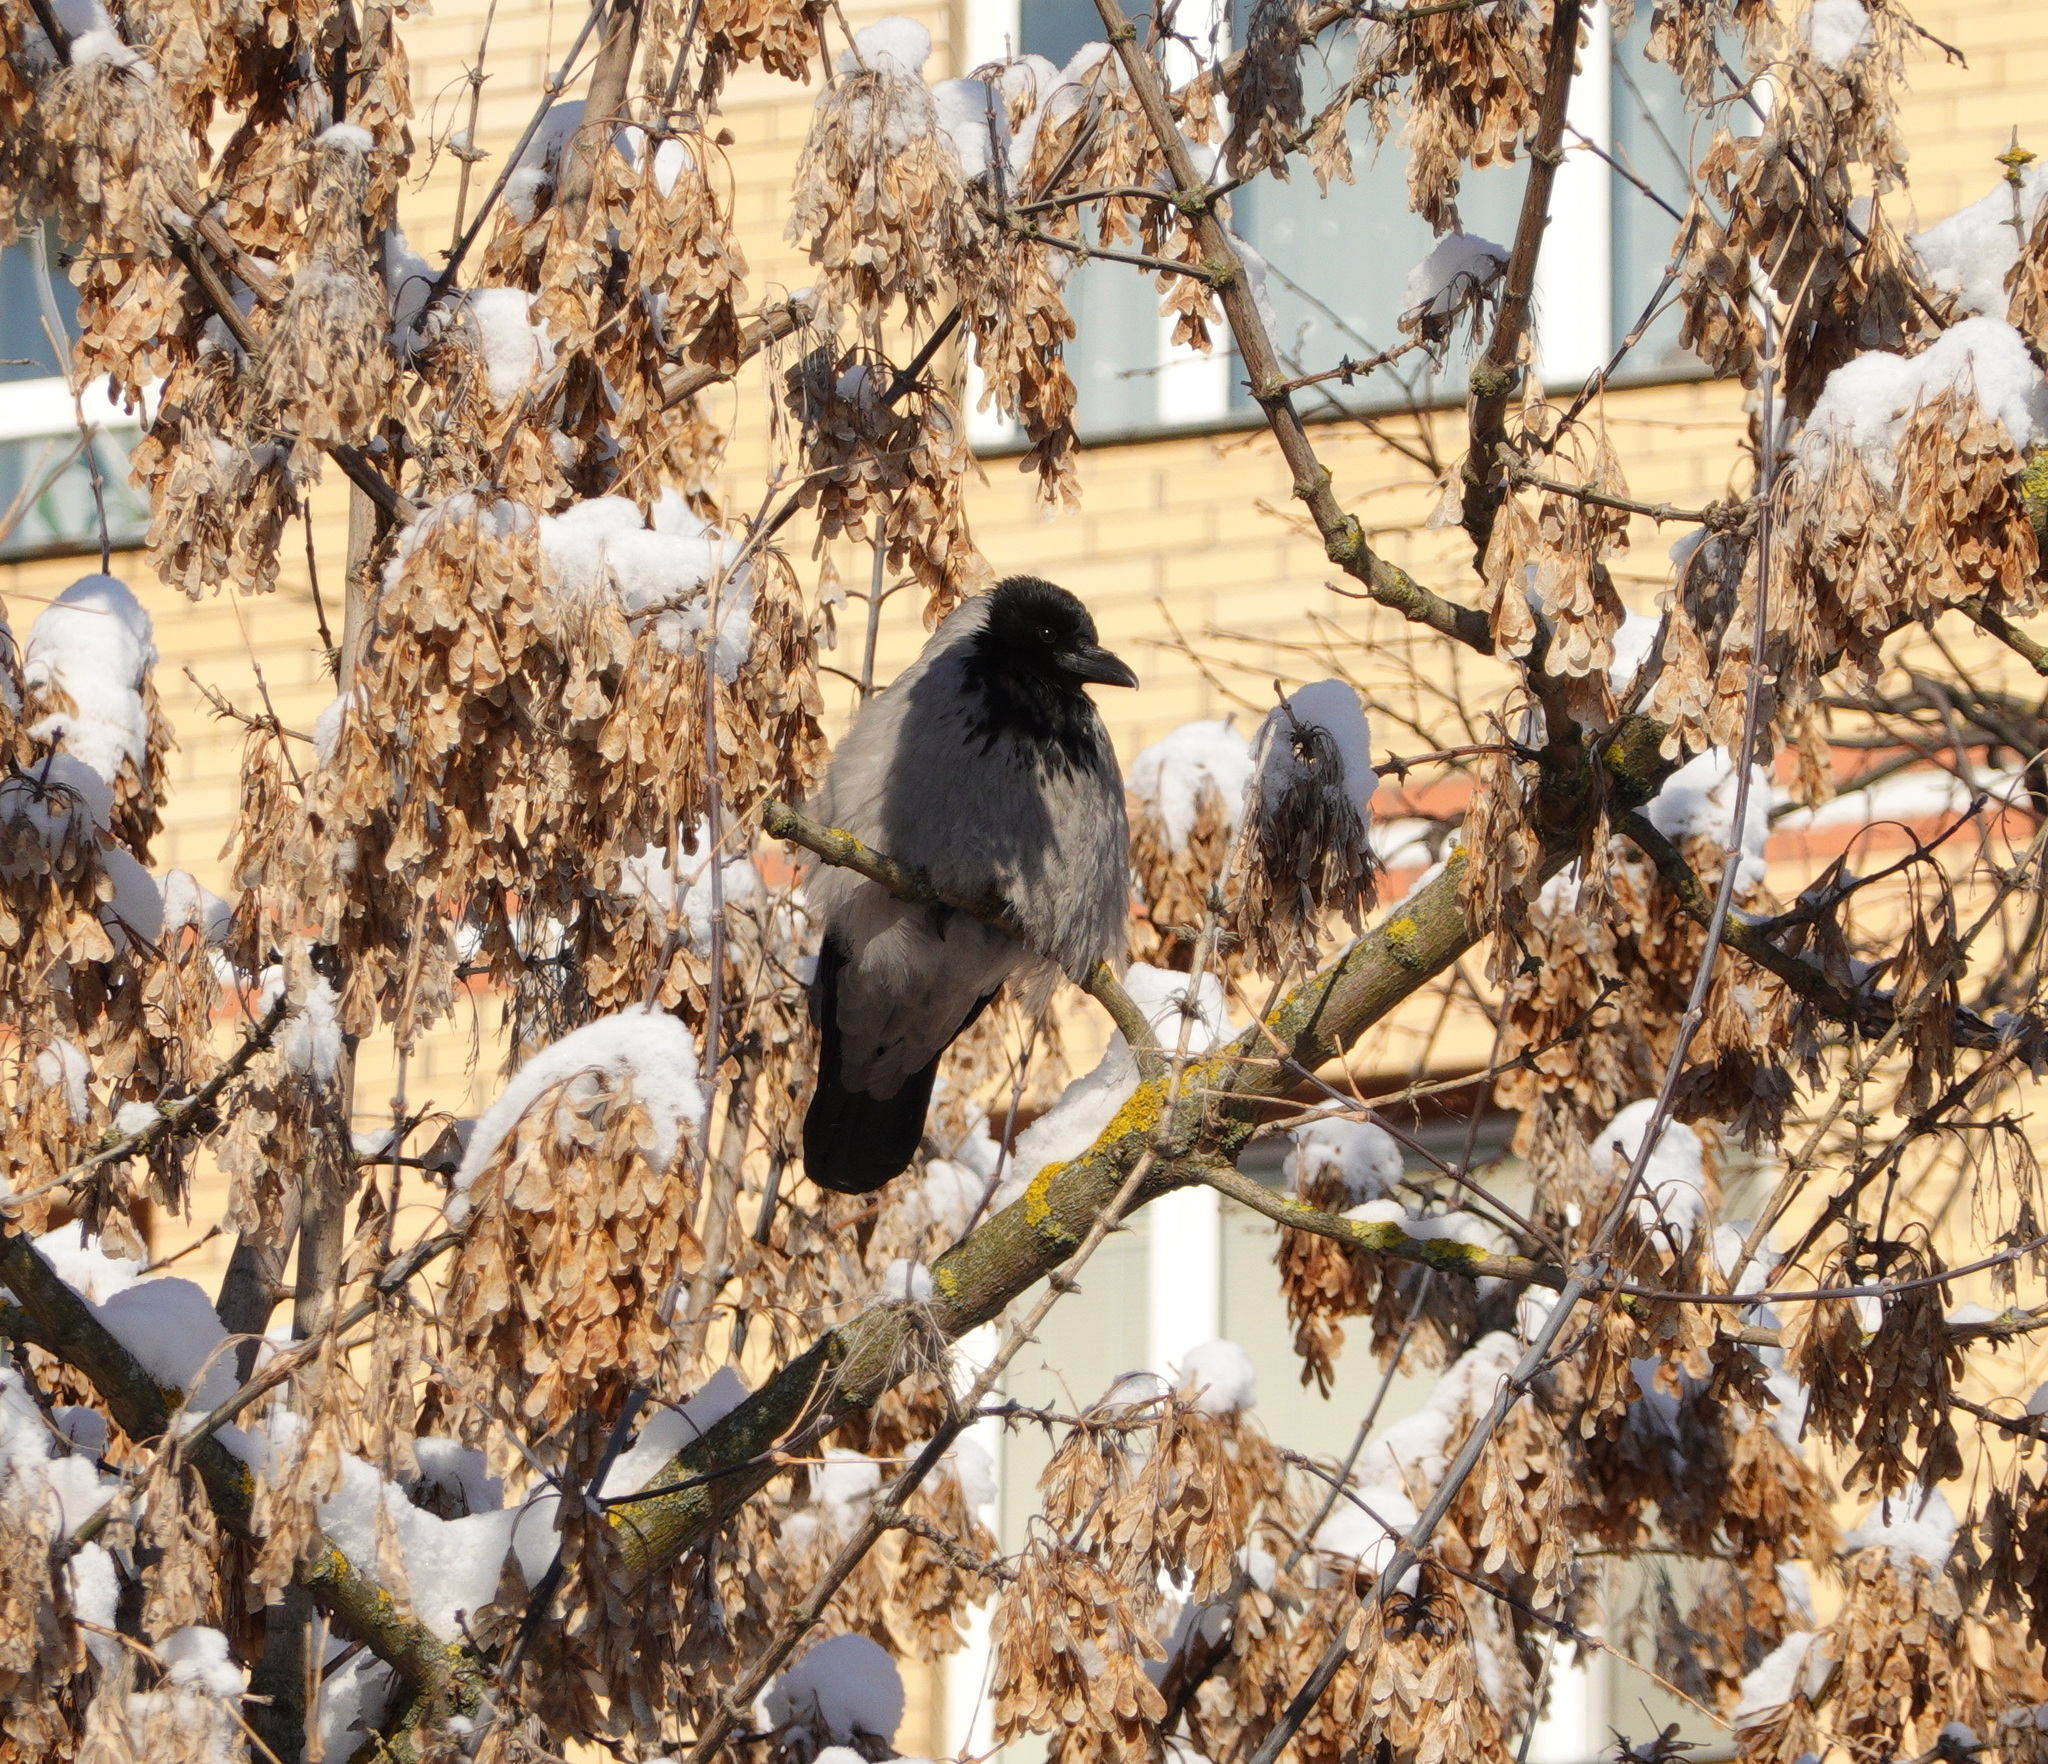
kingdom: Animalia
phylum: Chordata
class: Aves
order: Passeriformes
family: Corvidae
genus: Corvus
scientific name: Corvus cornix
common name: Hooded crow
